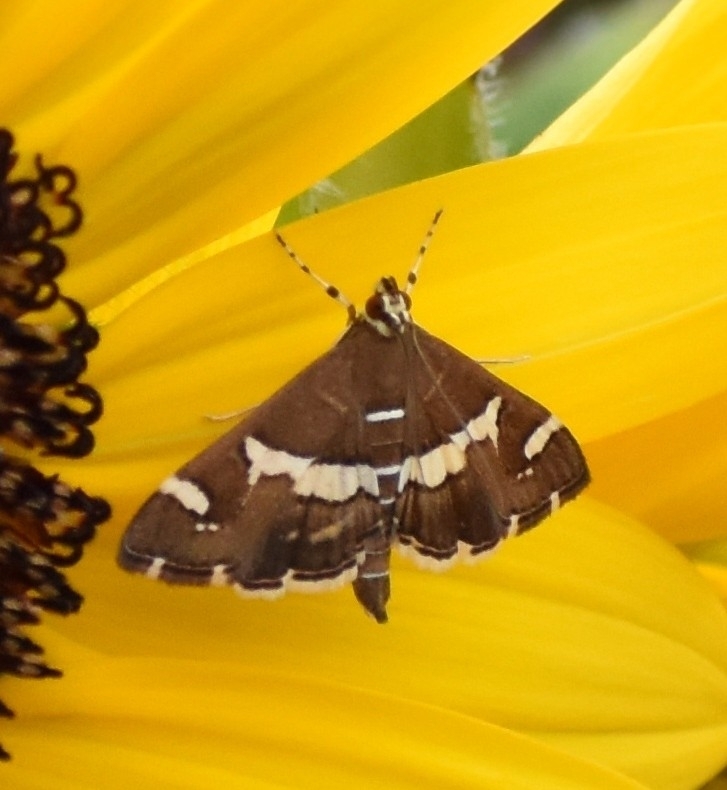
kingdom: Animalia
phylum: Arthropoda
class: Insecta
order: Lepidoptera
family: Crambidae
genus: Spoladea
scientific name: Spoladea recurvalis
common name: Beet webworm moth
